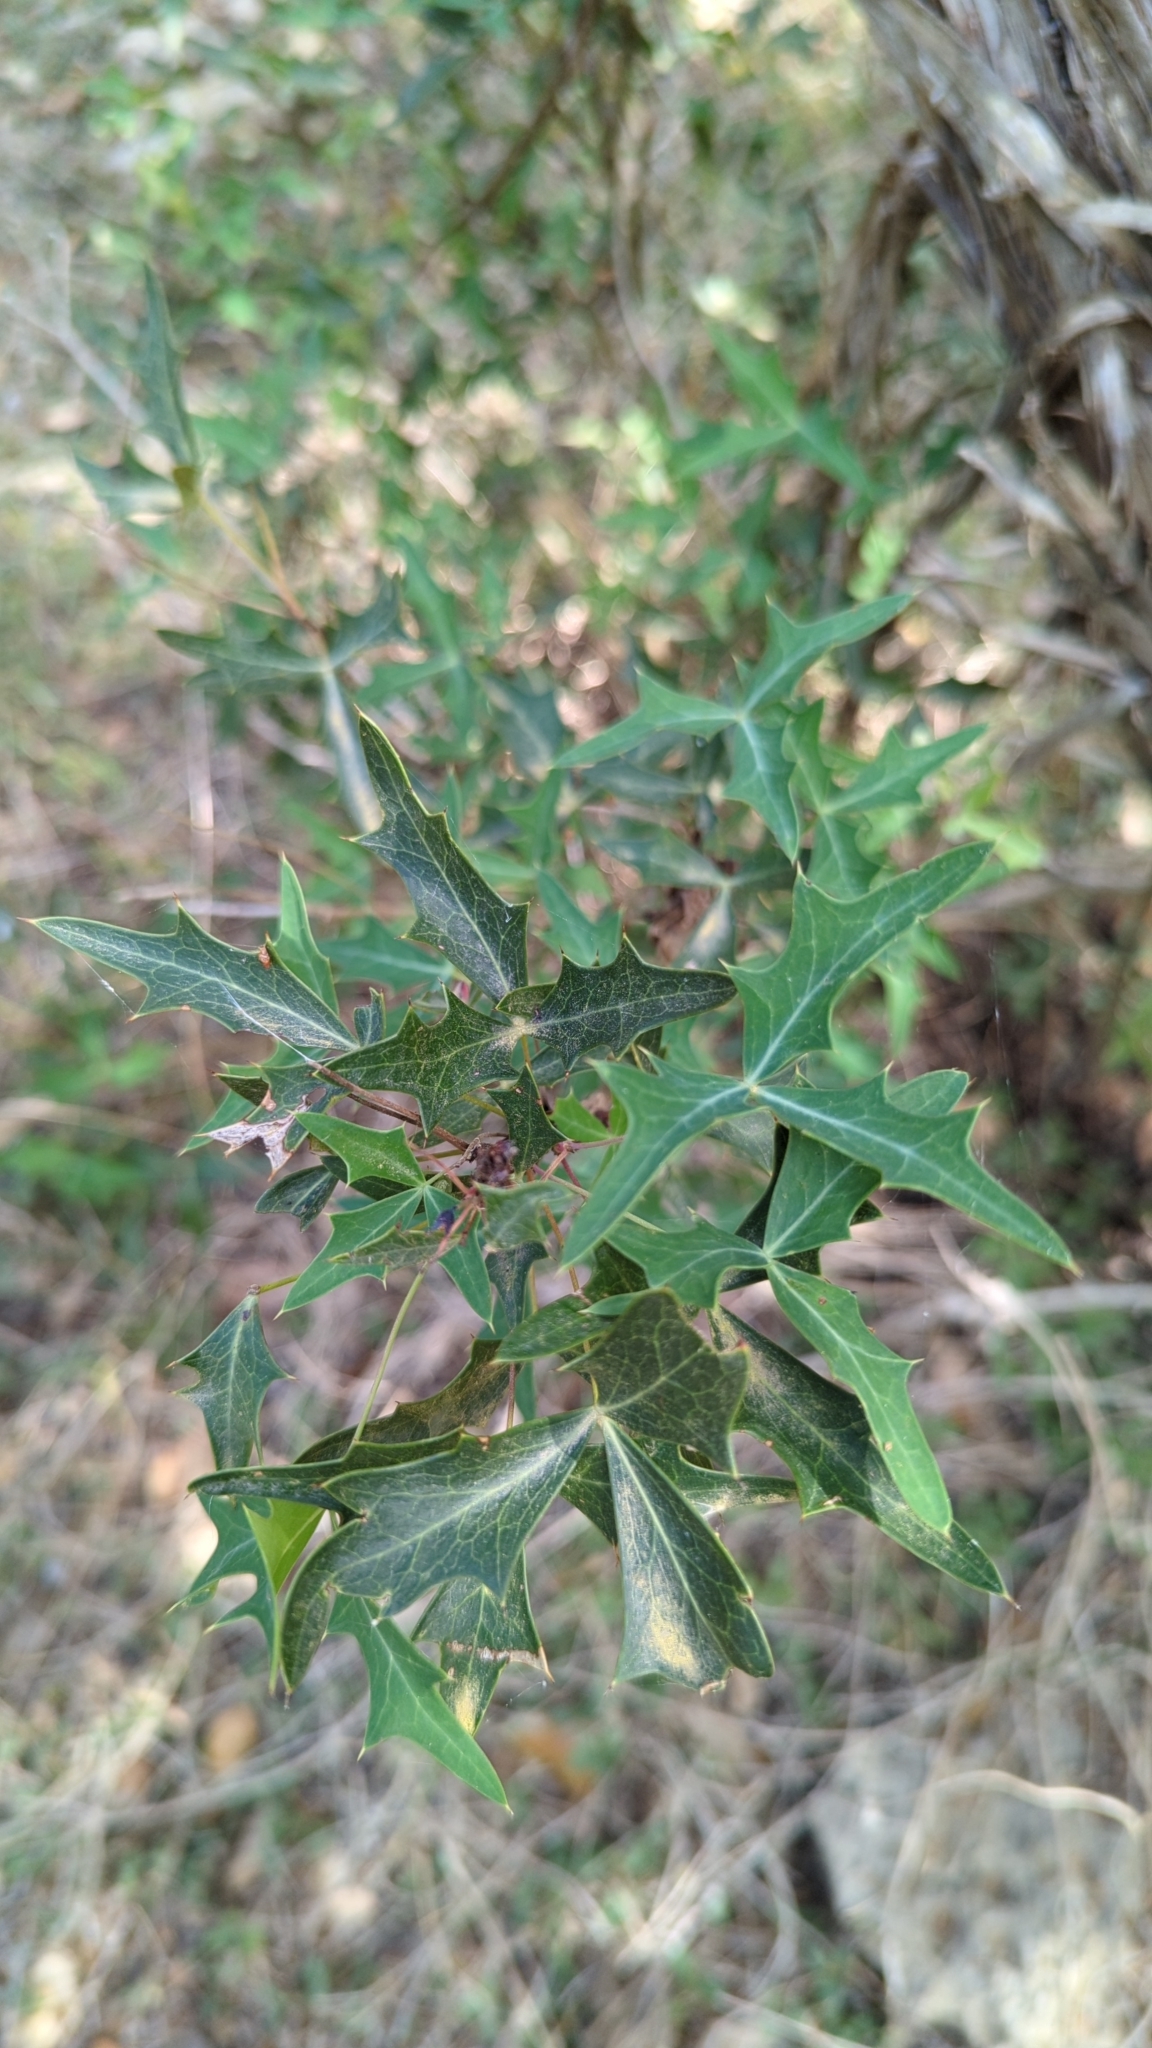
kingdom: Plantae
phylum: Tracheophyta
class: Magnoliopsida
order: Ranunculales
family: Berberidaceae
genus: Alloberberis
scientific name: Alloberberis trifoliolata
